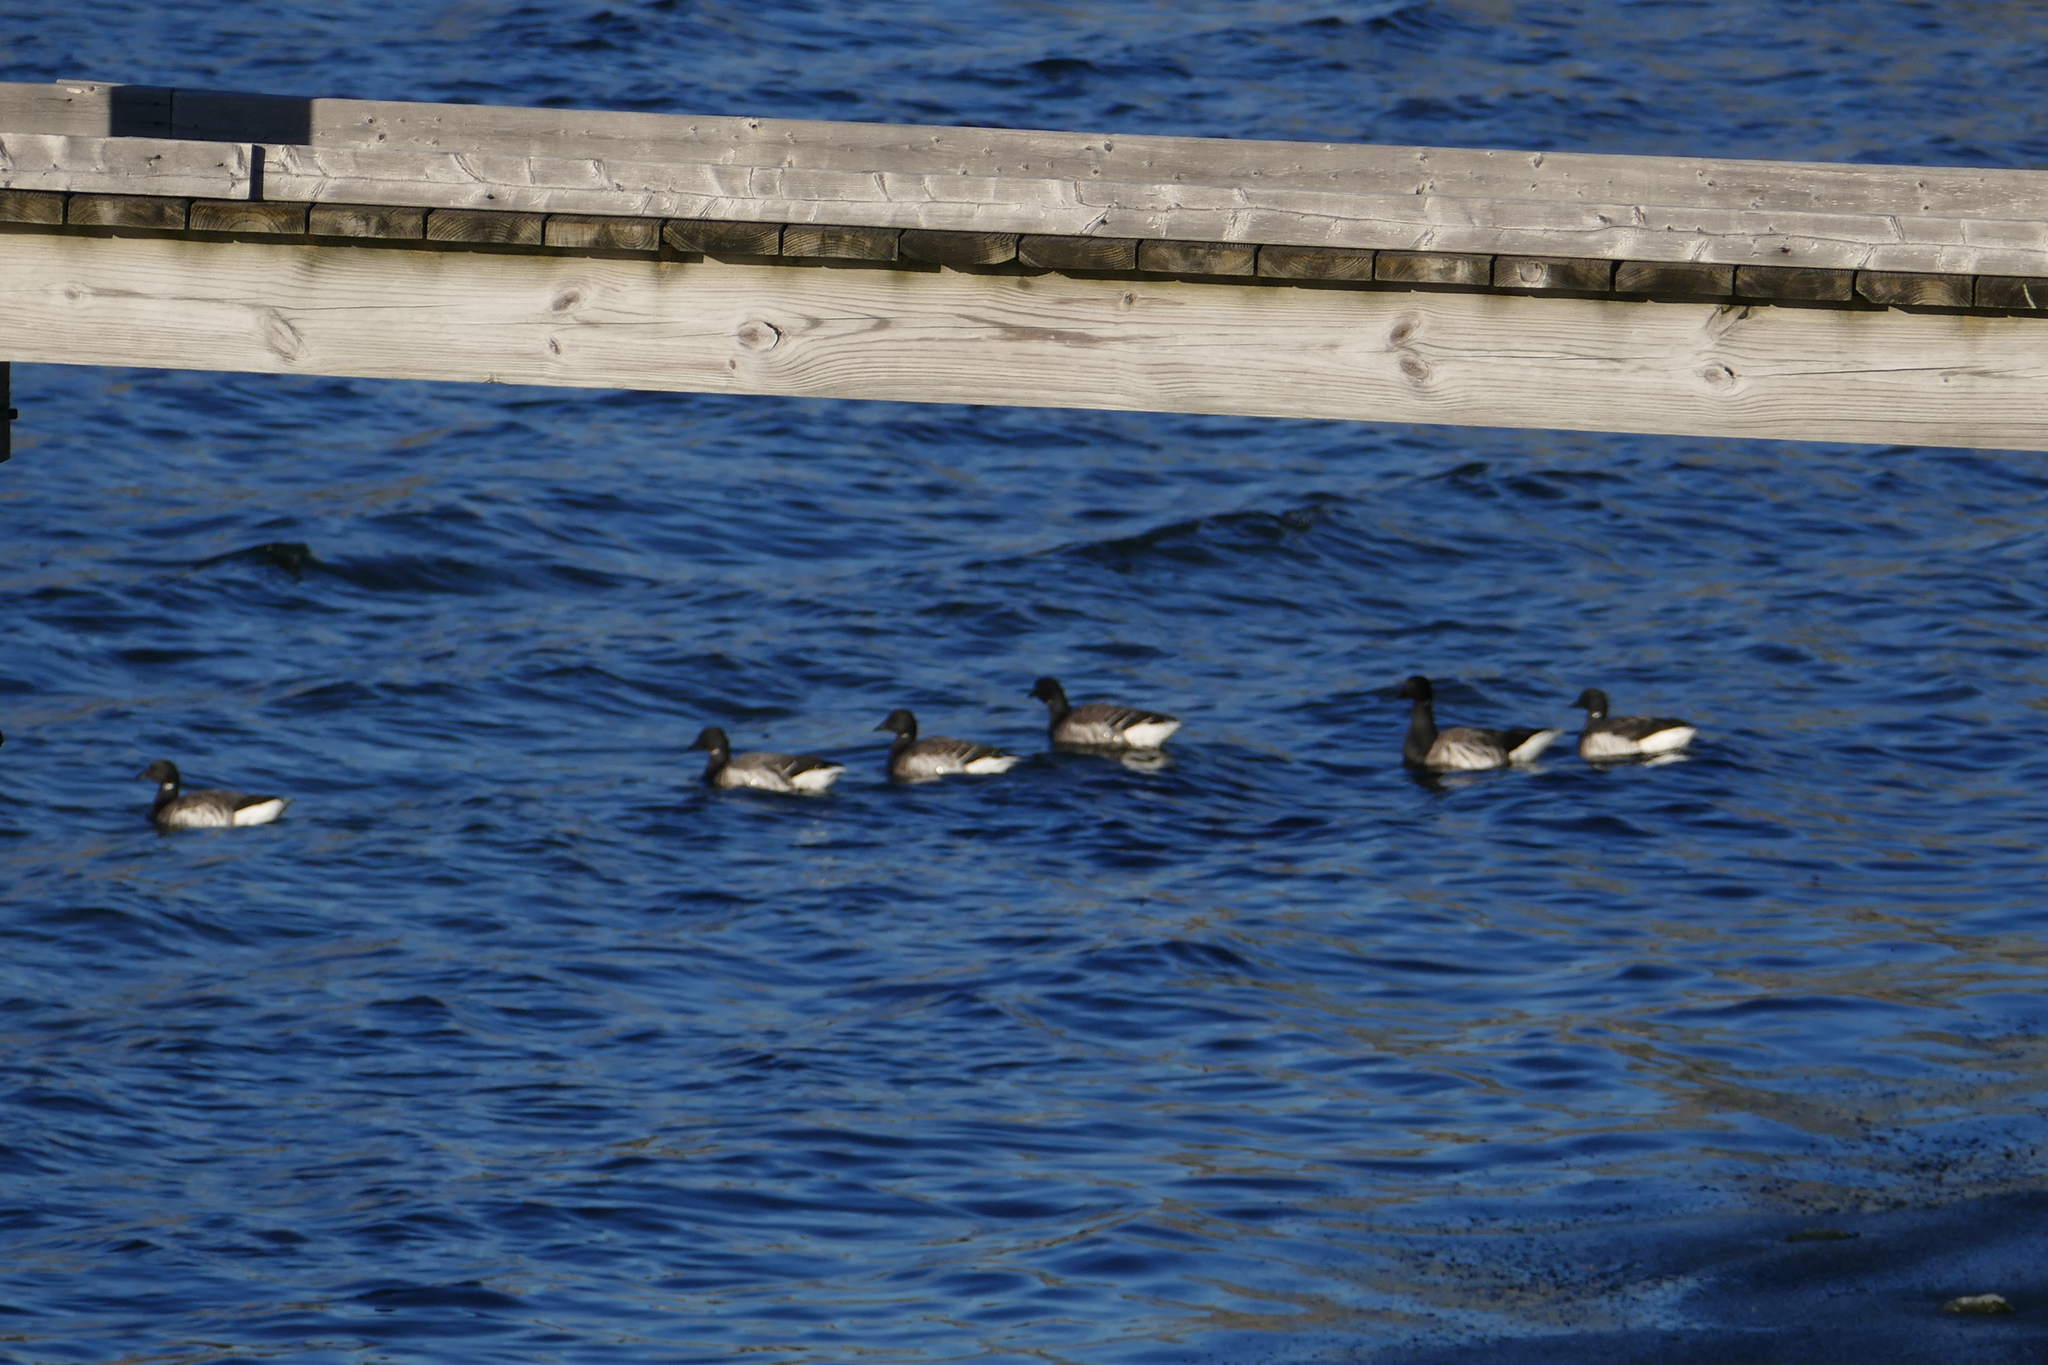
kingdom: Animalia
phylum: Chordata
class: Aves
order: Anseriformes
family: Anatidae
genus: Branta
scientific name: Branta bernicla
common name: Brant goose
